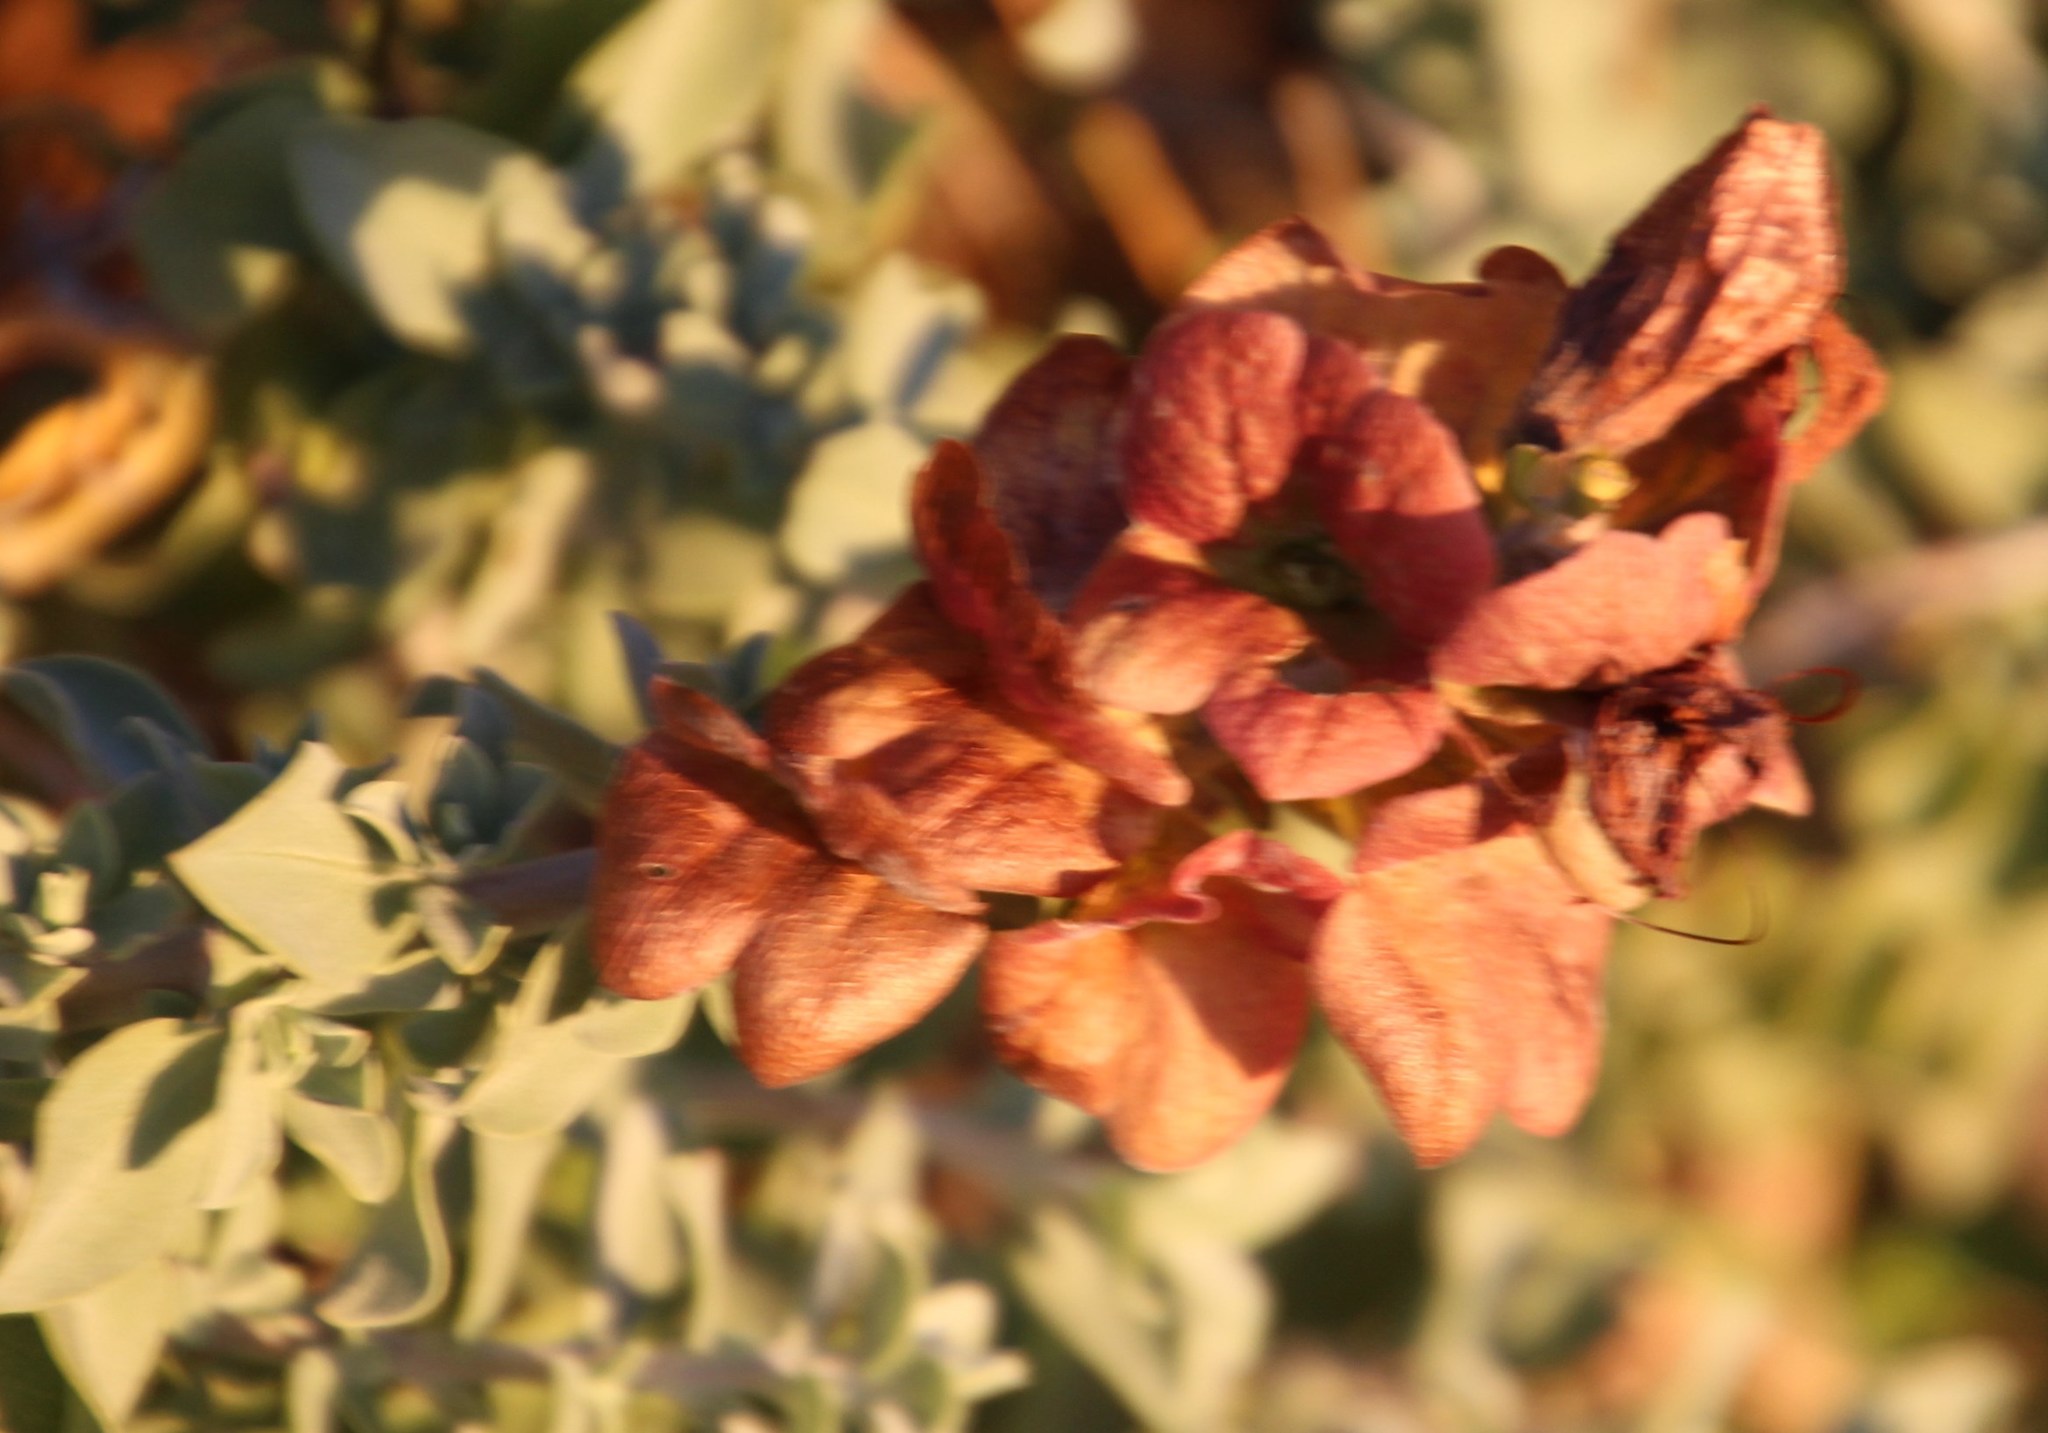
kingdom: Plantae
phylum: Tracheophyta
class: Magnoliopsida
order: Lamiales
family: Lamiaceae
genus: Salvia
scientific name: Salvia aurea
